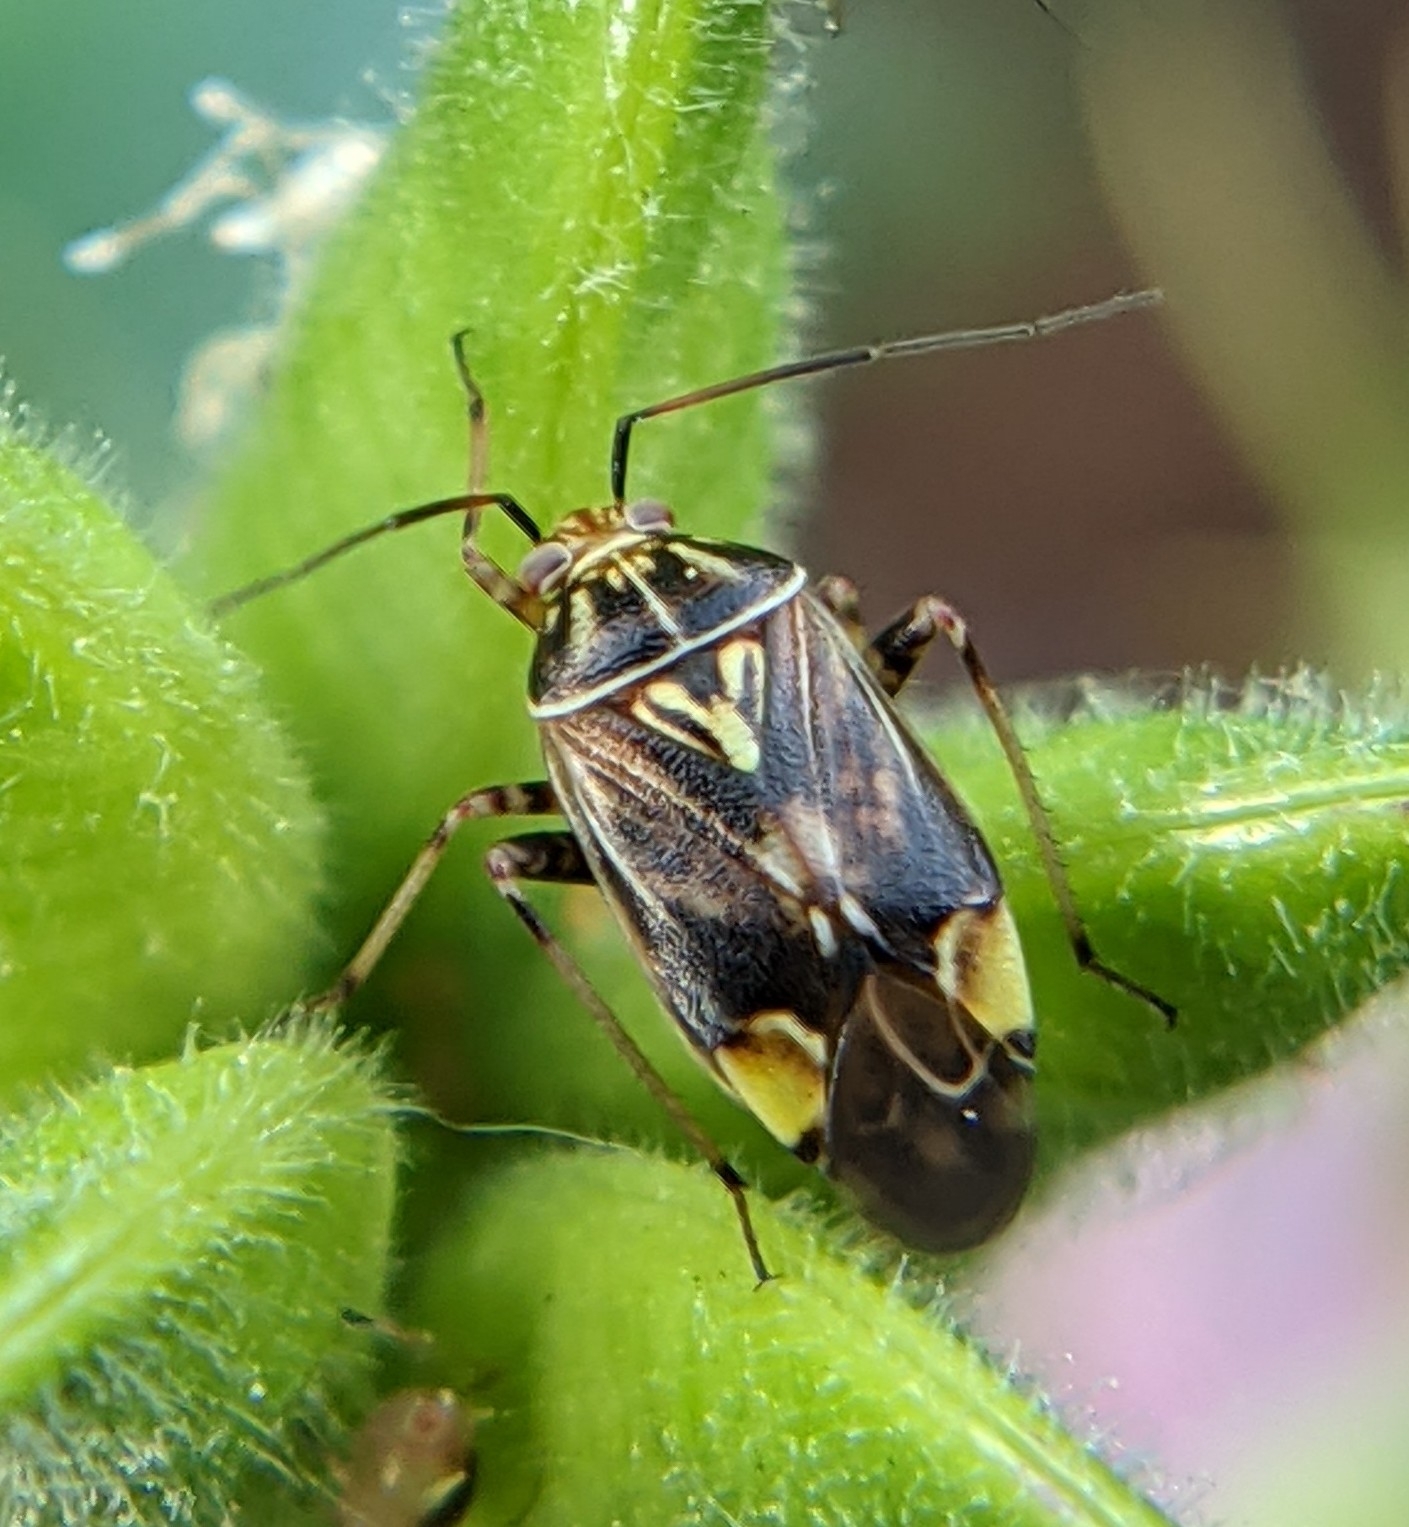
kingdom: Animalia
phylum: Arthropoda
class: Insecta
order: Hemiptera
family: Miridae
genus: Lygus
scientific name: Lygus lineolaris
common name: North american tarnished plant bug
